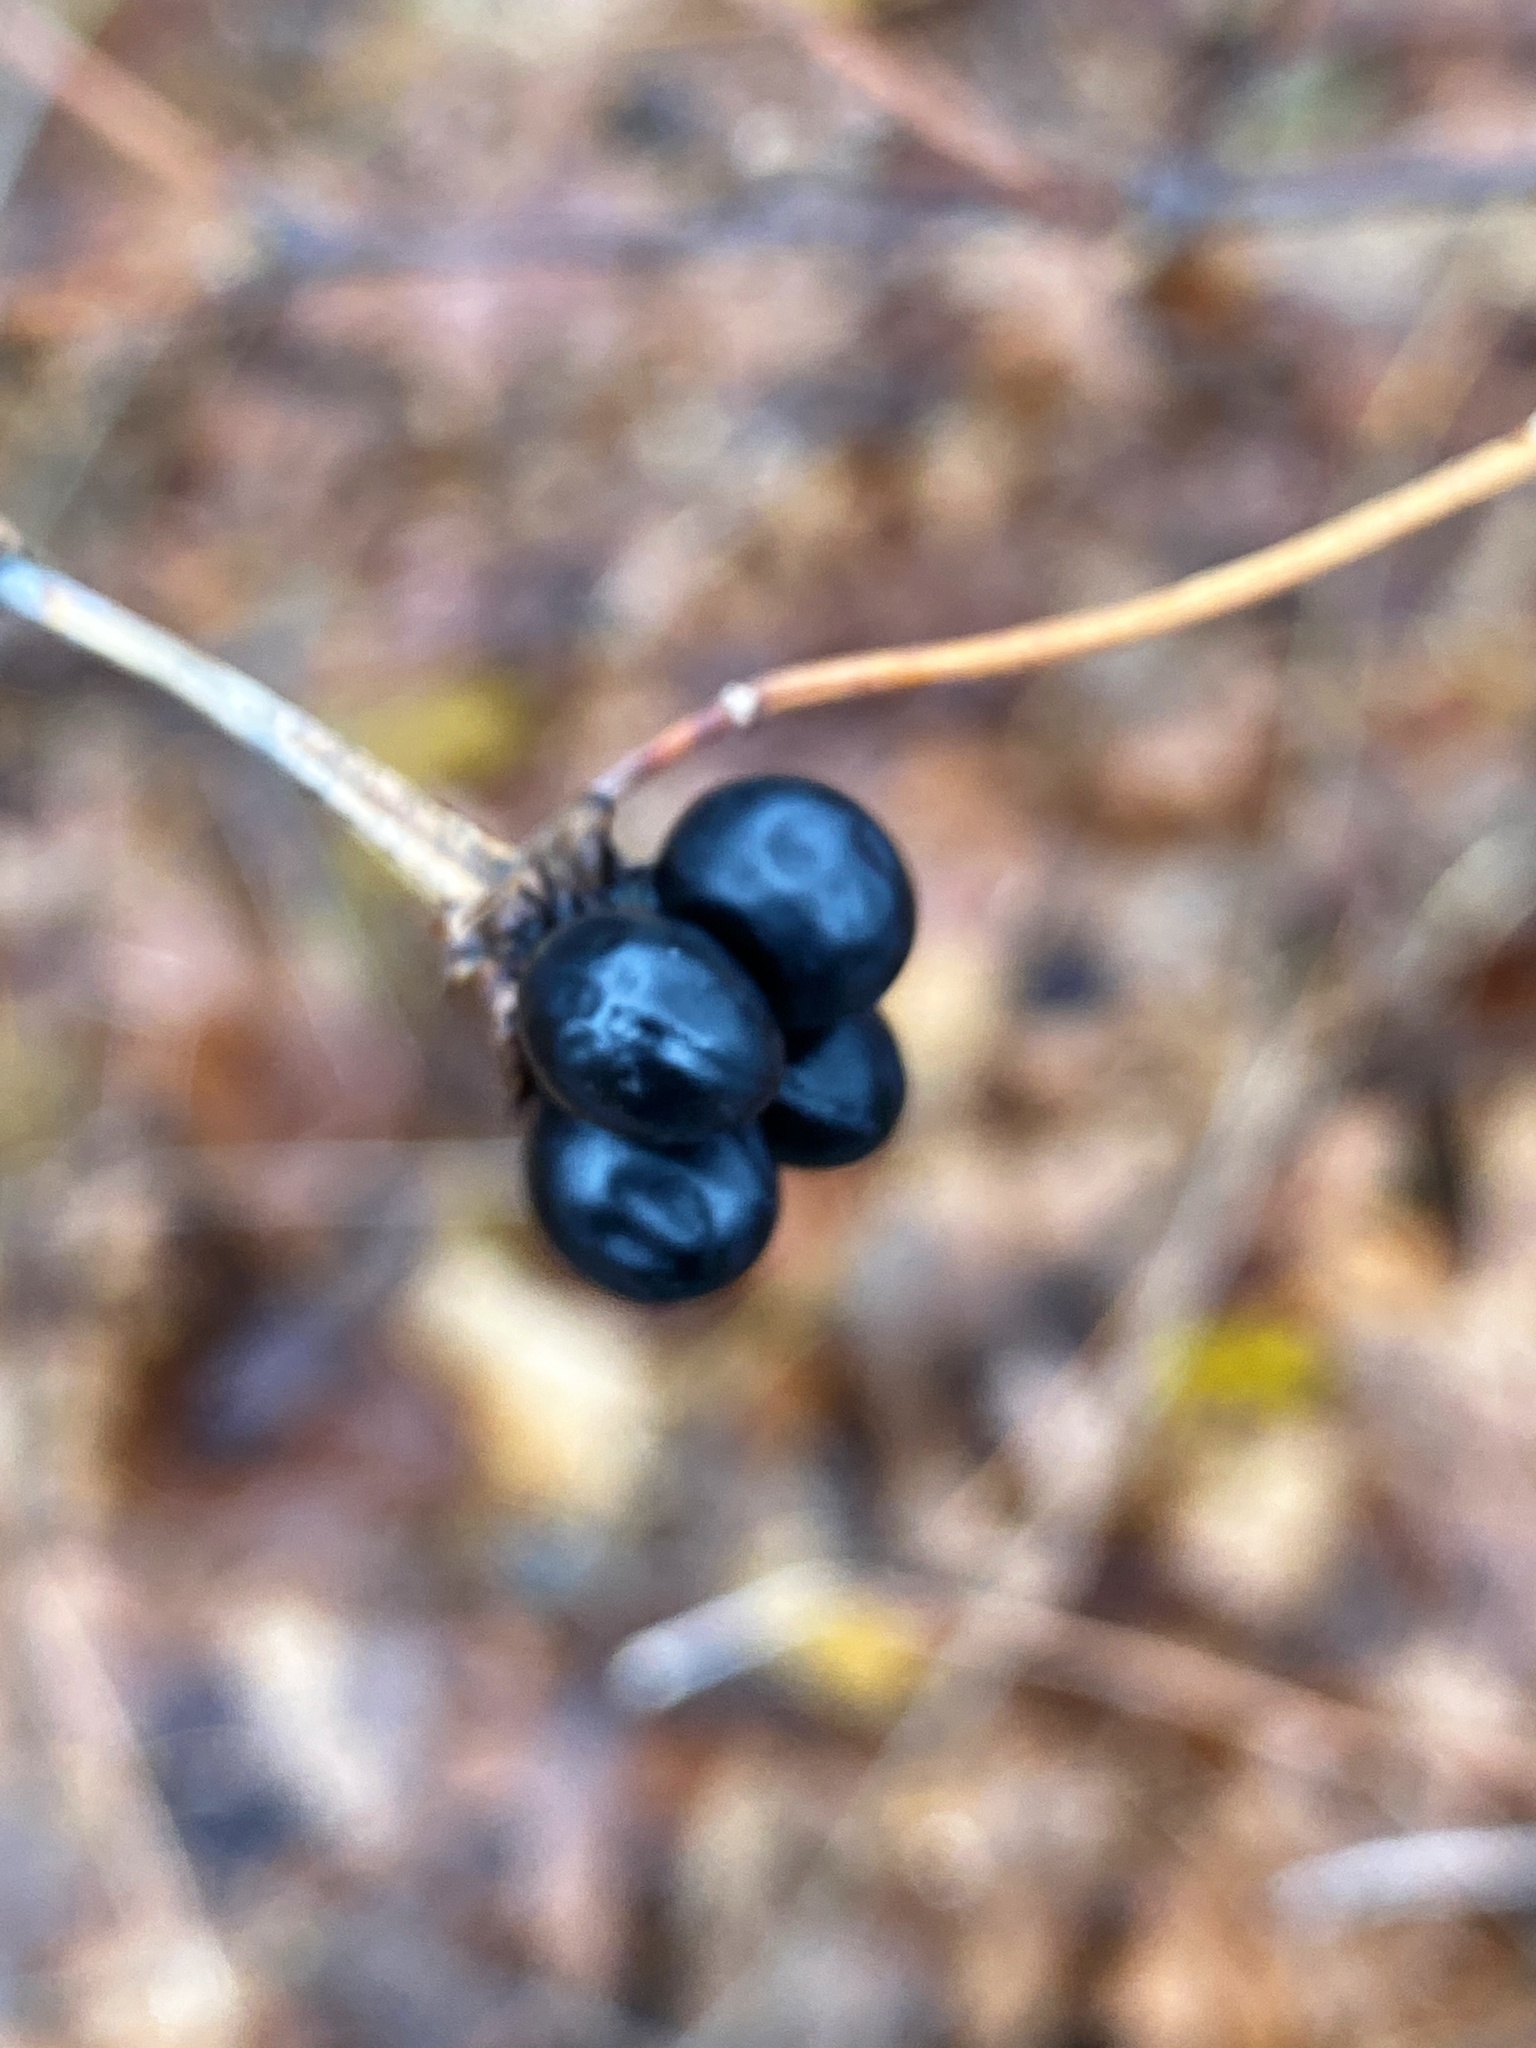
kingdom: Plantae
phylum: Tracheophyta
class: Magnoliopsida
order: Rosales
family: Rosaceae
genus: Rhodotypos
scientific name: Rhodotypos scandens
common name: Jetbead
